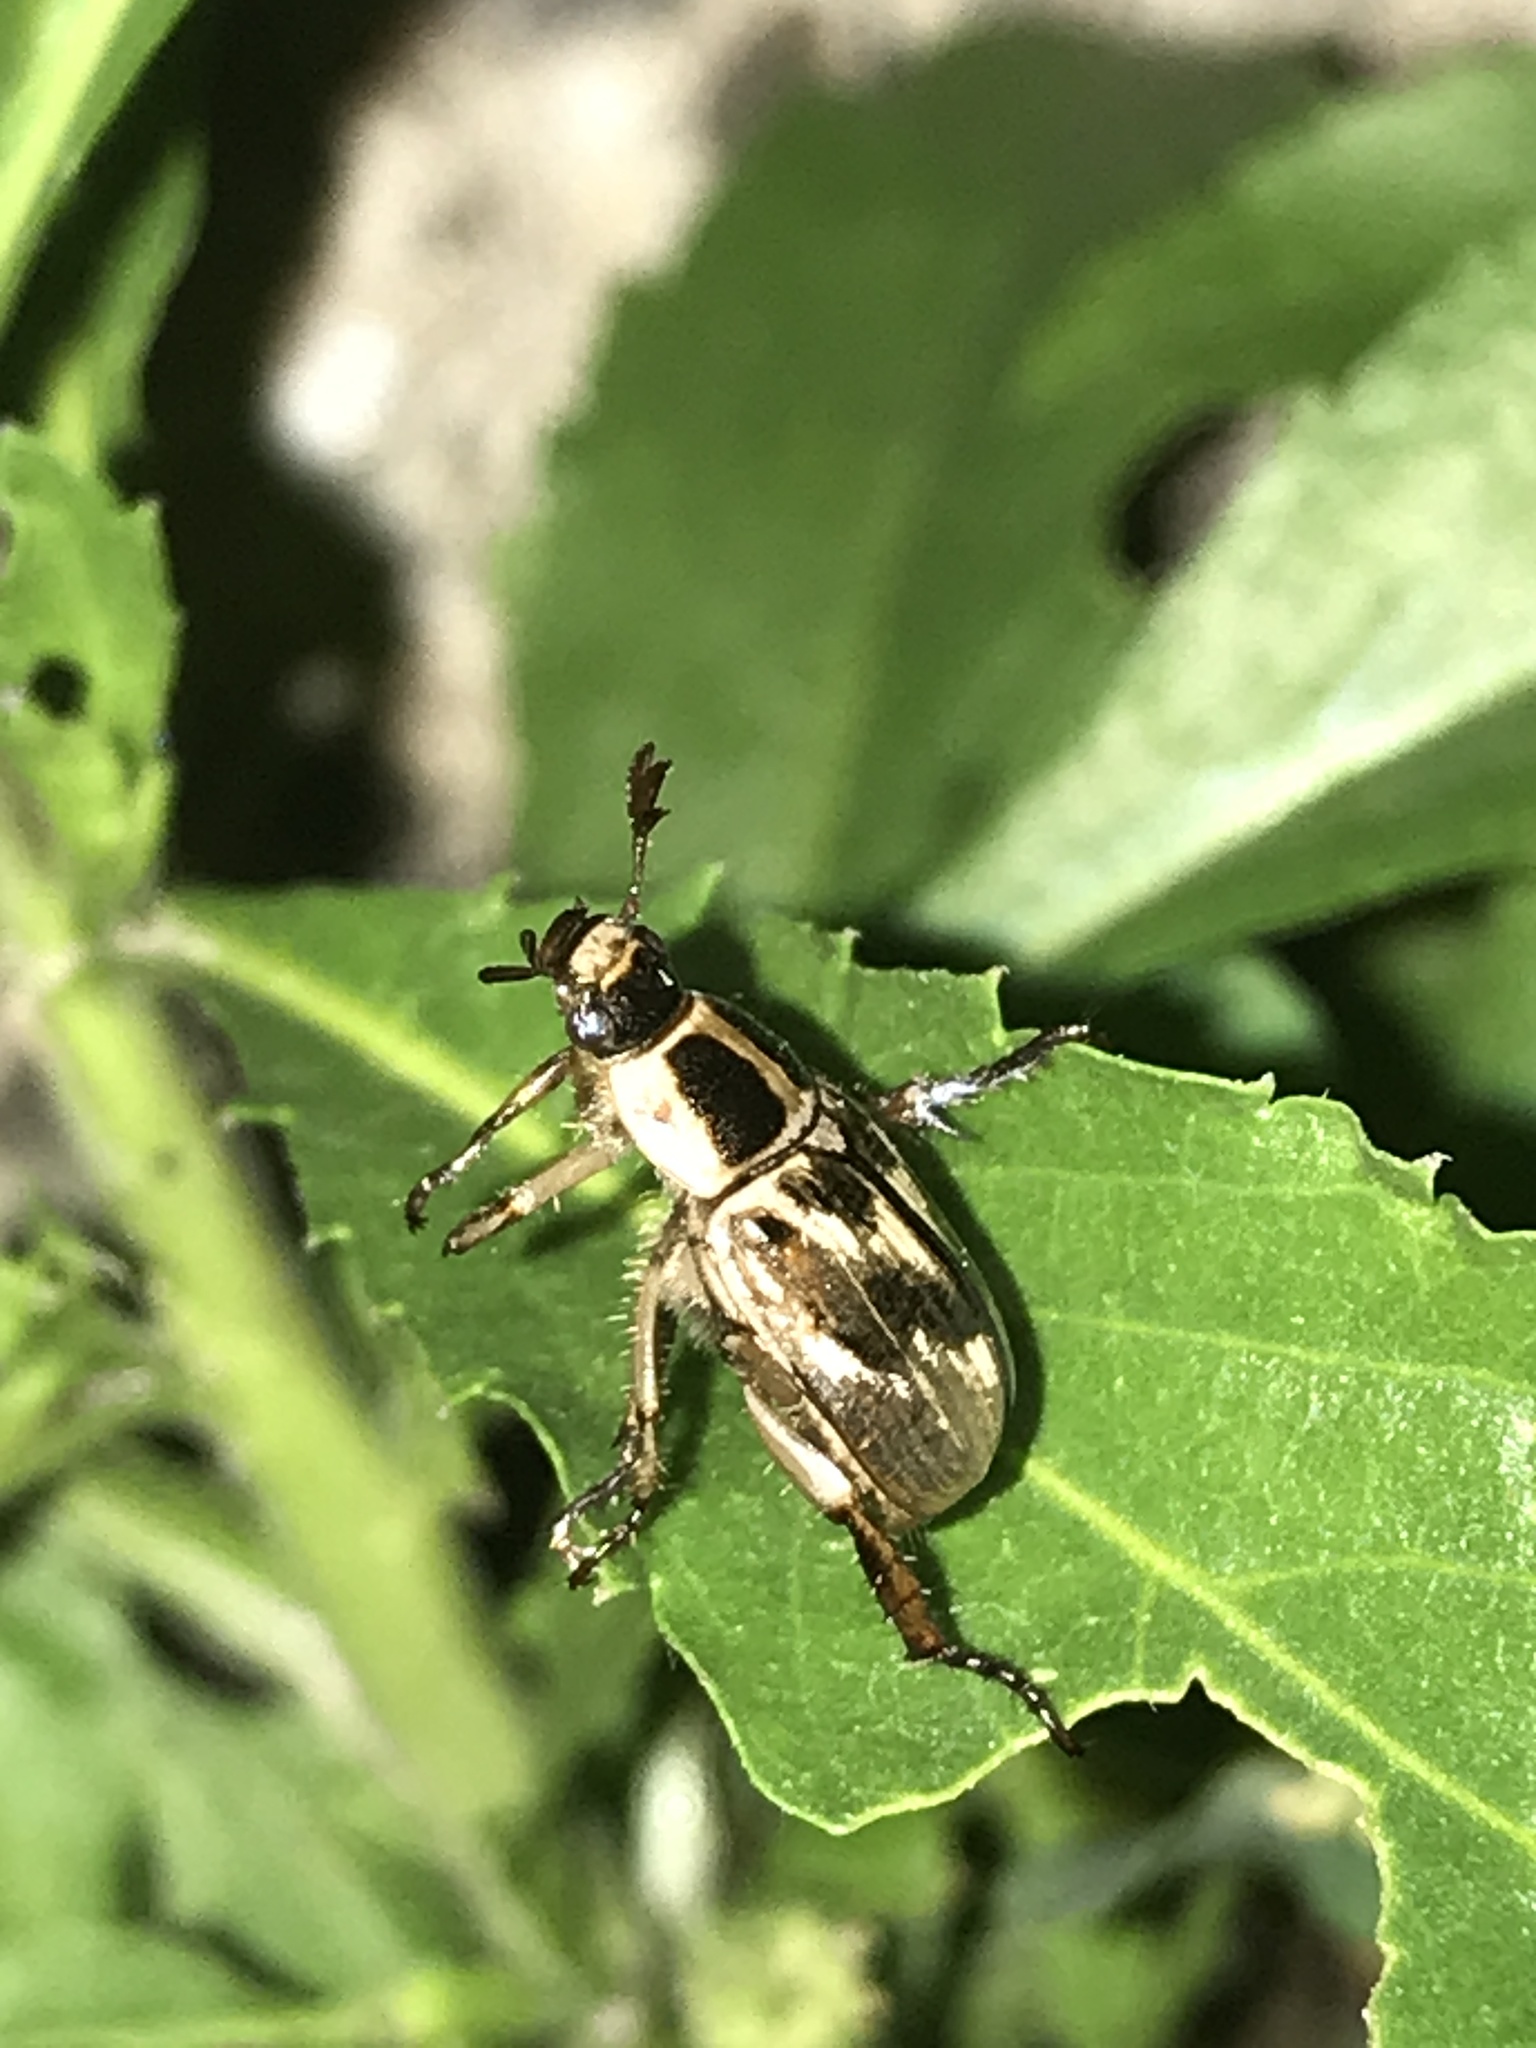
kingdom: Animalia
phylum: Arthropoda
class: Insecta
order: Coleoptera
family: Scarabaeidae
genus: Exomala
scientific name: Exomala orientalis
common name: Oriental beetle
